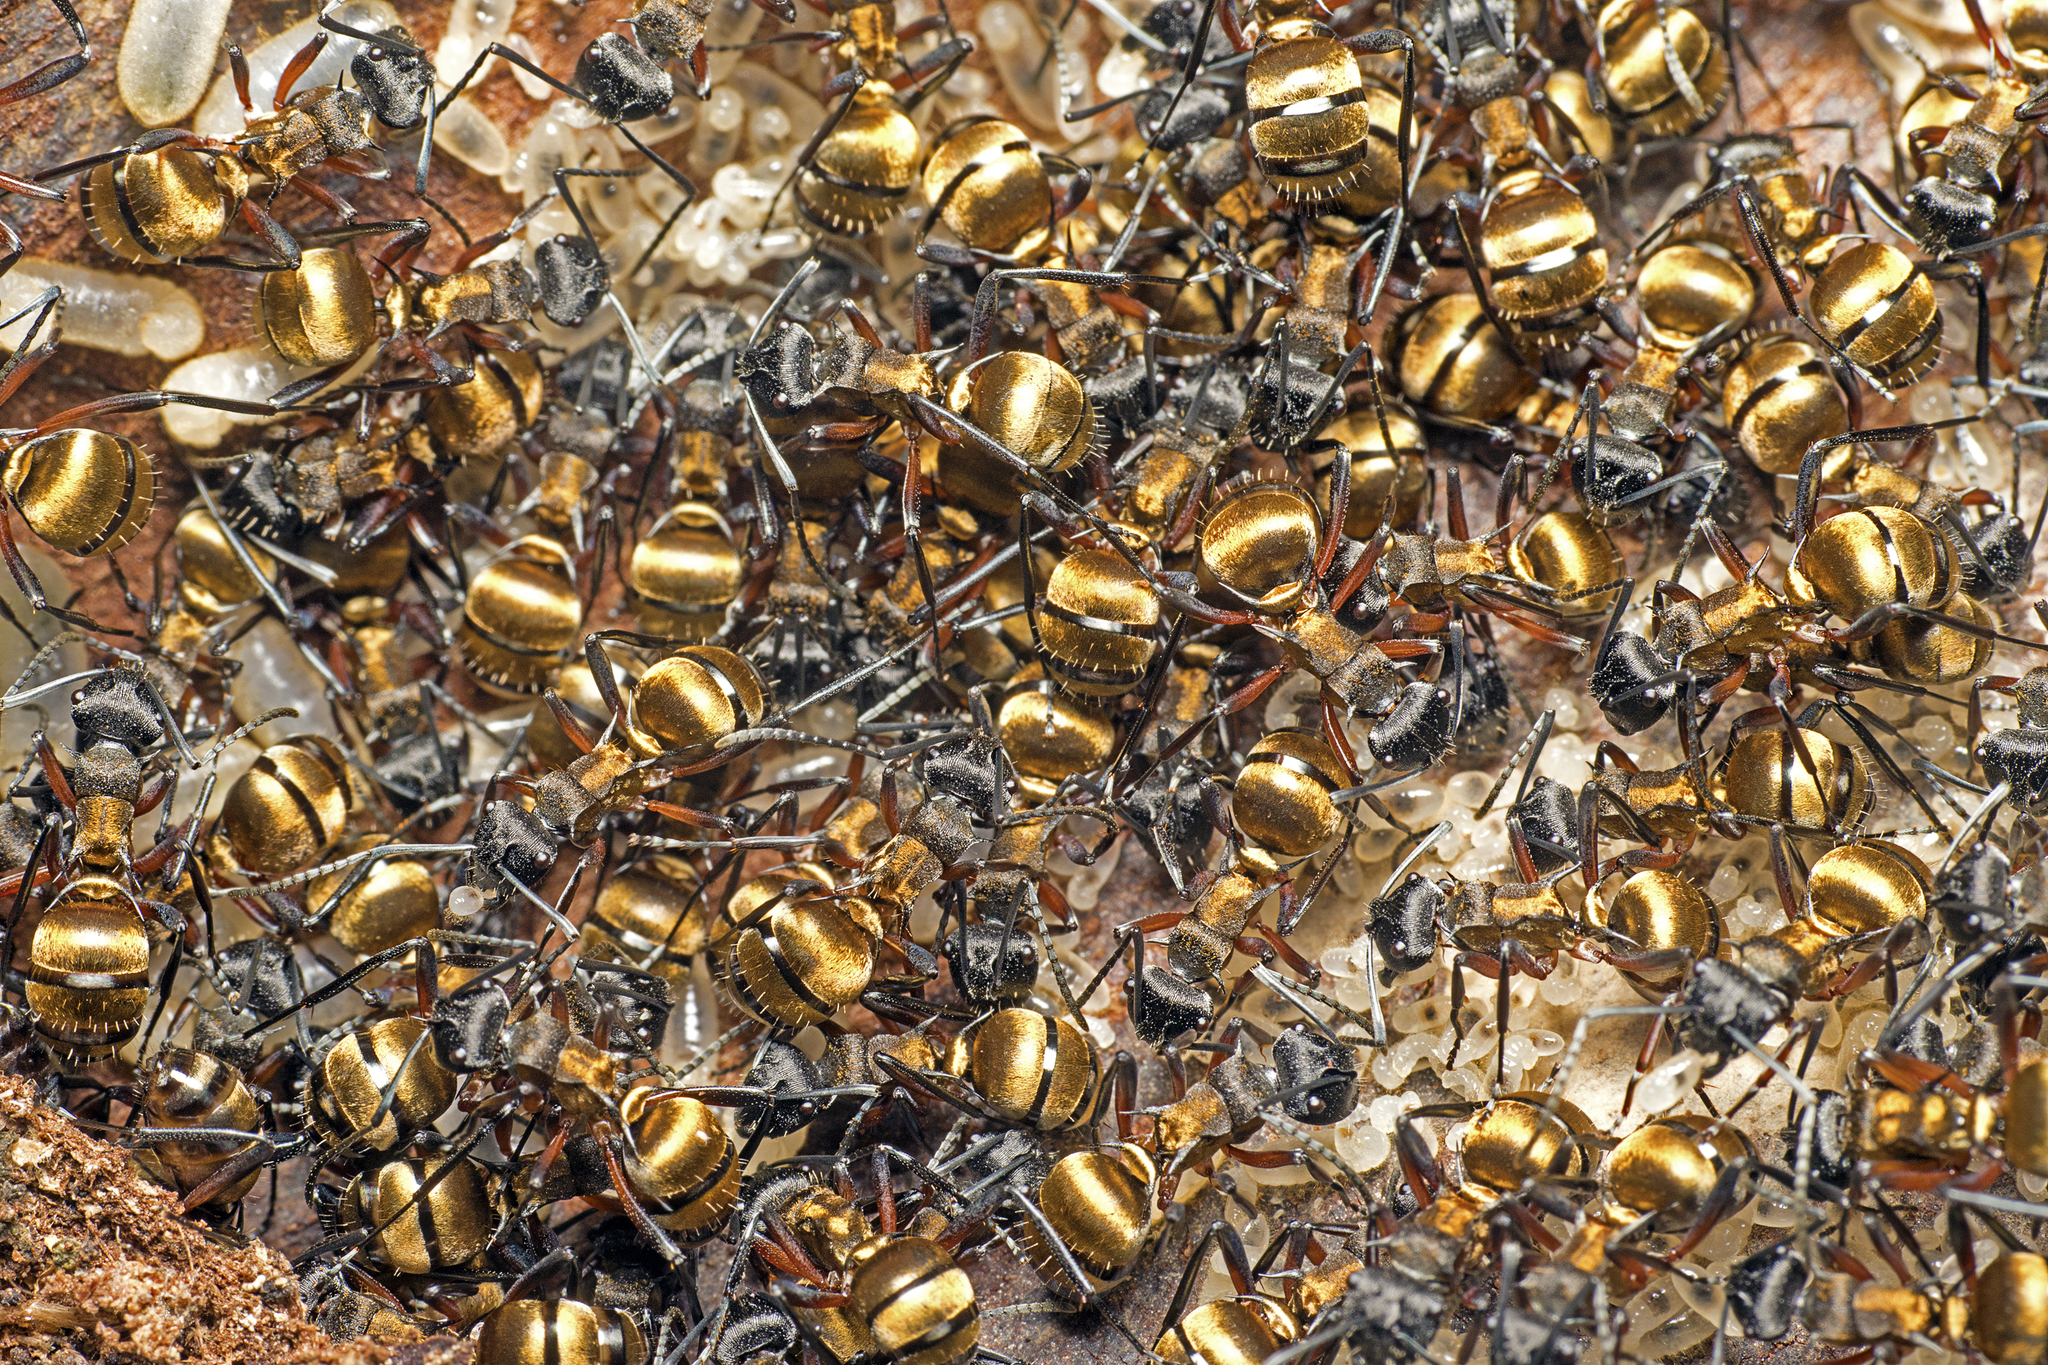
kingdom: Animalia
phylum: Arthropoda
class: Insecta
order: Hymenoptera
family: Formicidae
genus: Polyrhachis
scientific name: Polyrhachis rufifemur
